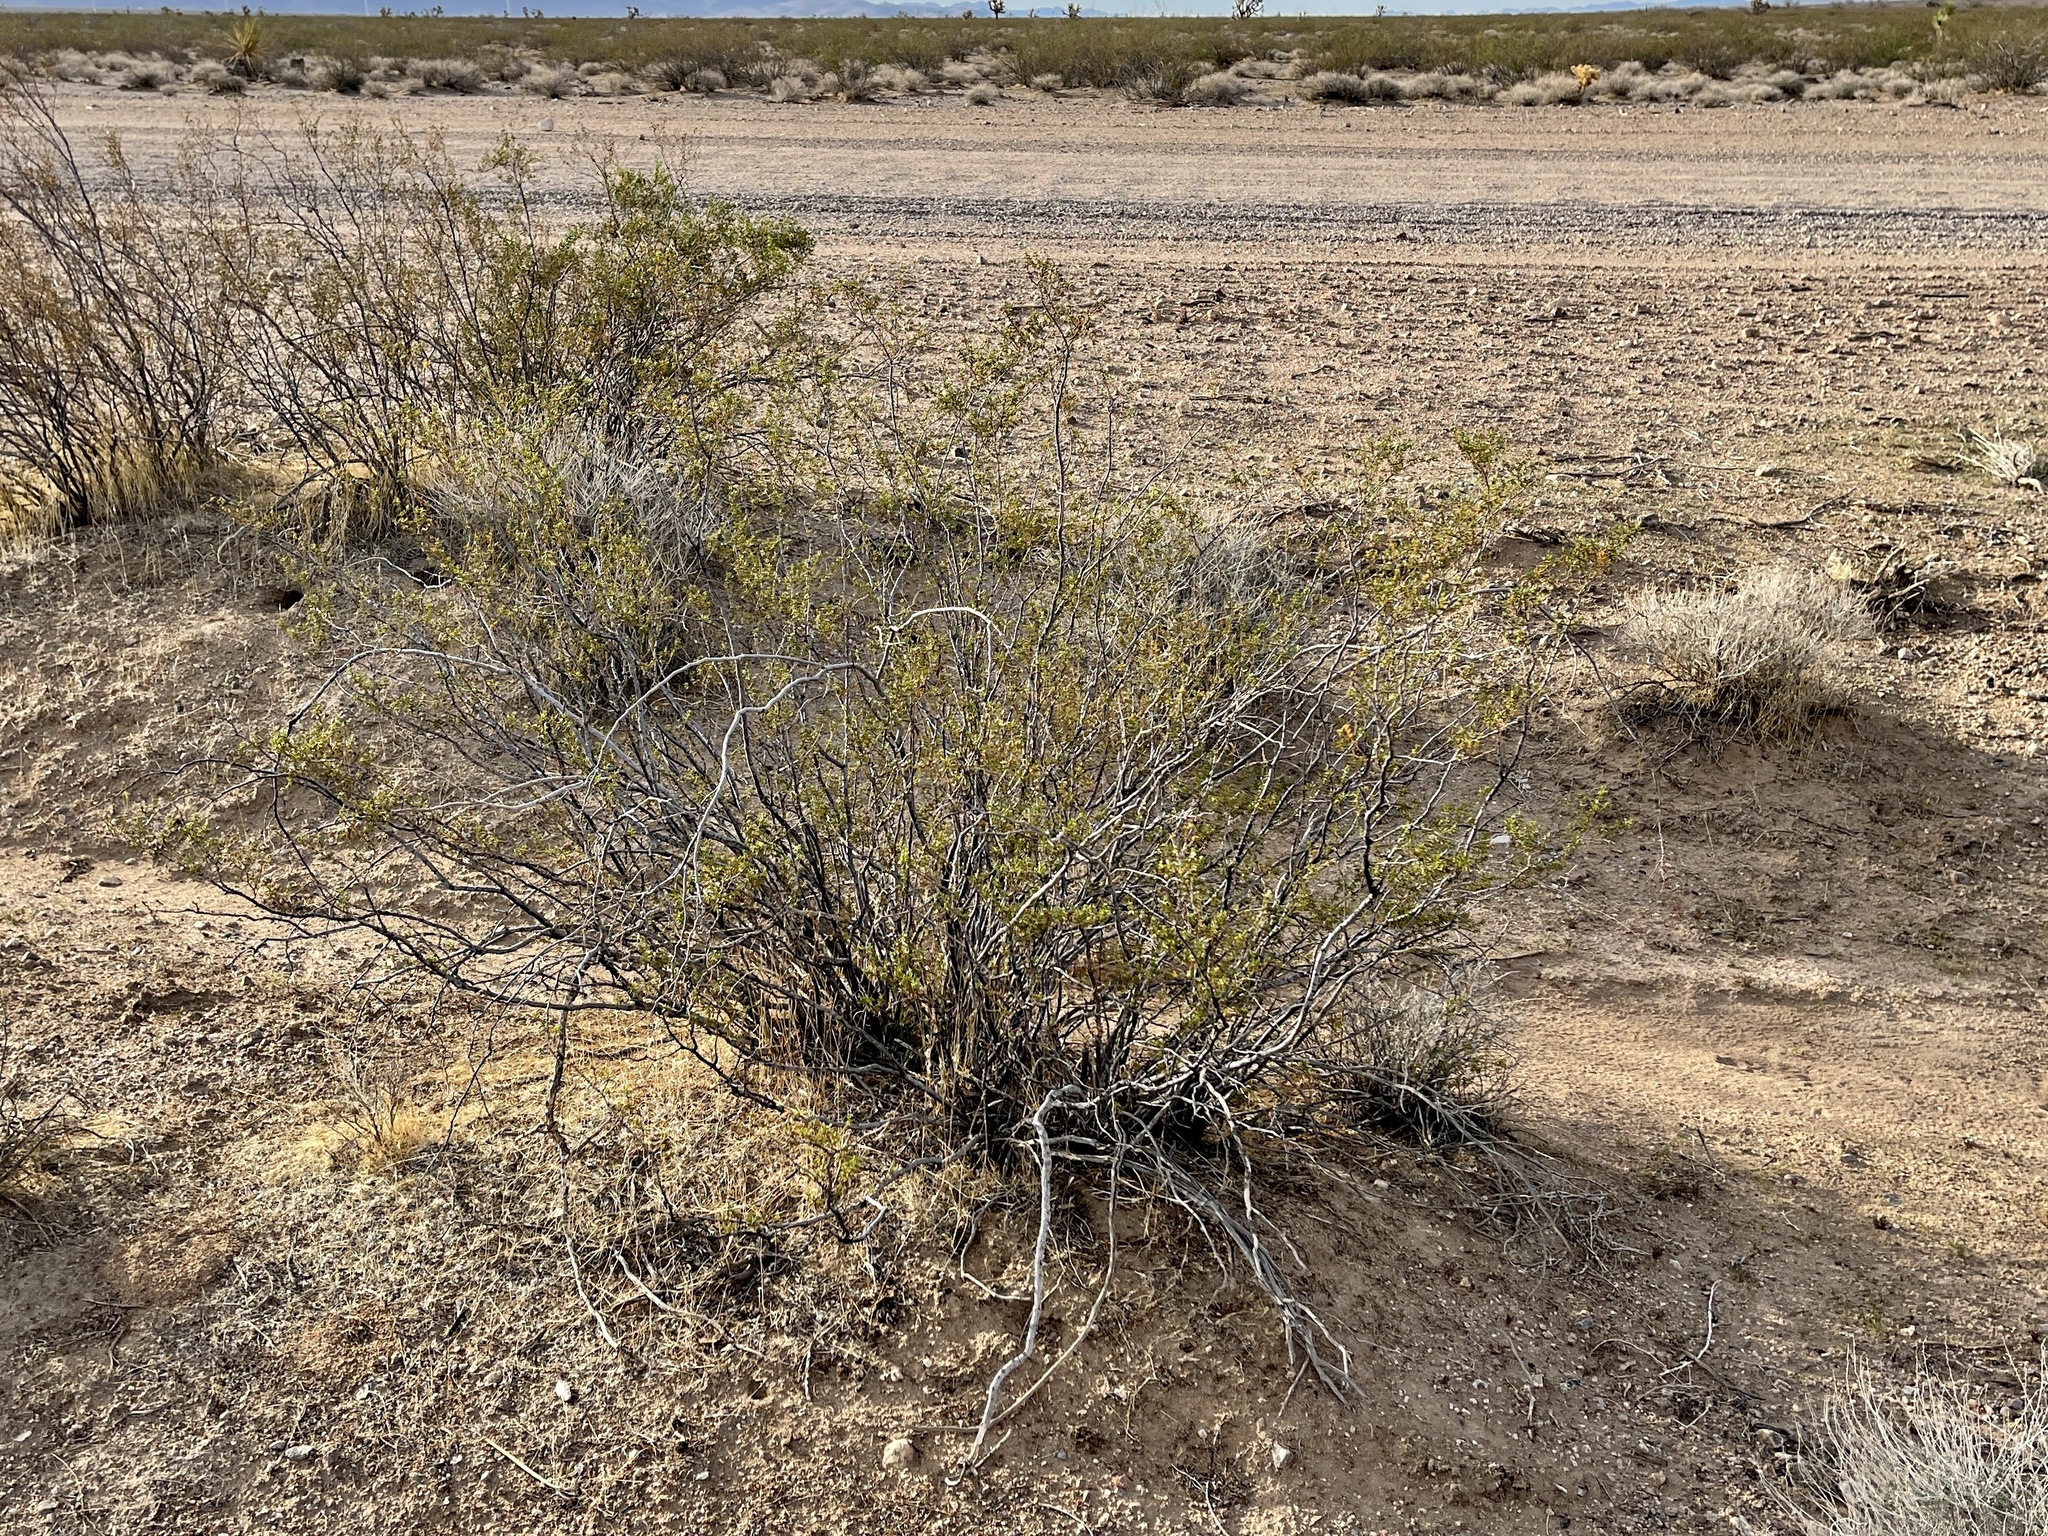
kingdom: Plantae
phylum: Tracheophyta
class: Magnoliopsida
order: Zygophyllales
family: Zygophyllaceae
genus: Larrea
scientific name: Larrea tridentata
